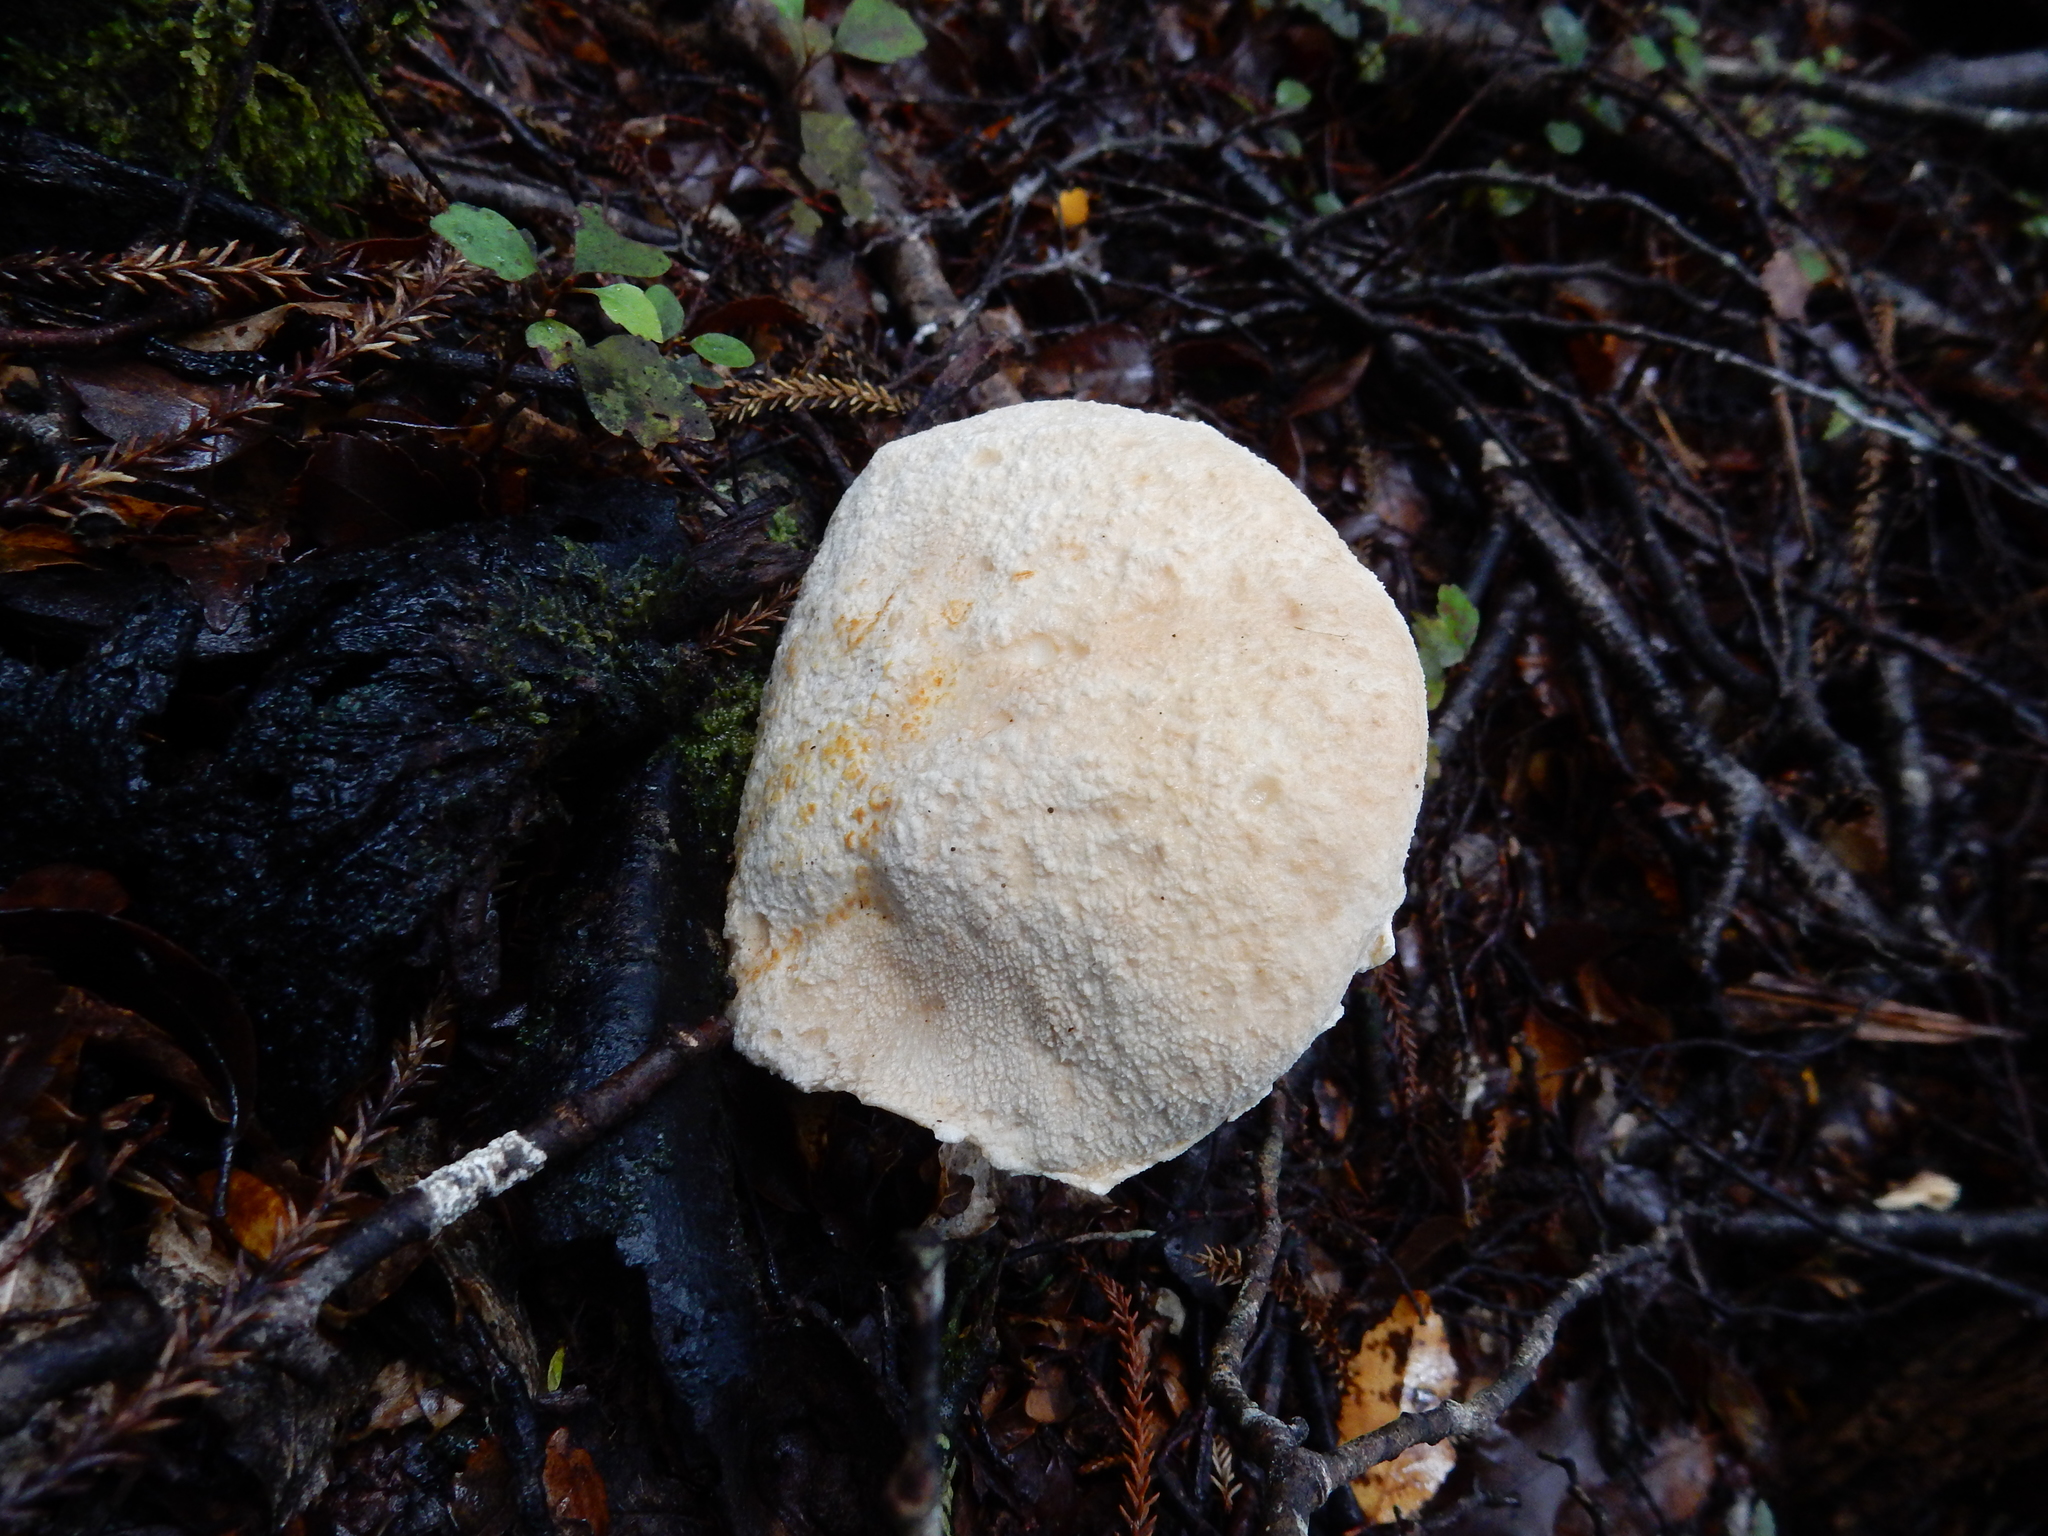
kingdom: Fungi
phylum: Basidiomycota
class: Agaricomycetes
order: Boletales
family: Boletaceae
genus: Fistulinella
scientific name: Fistulinella nivea
